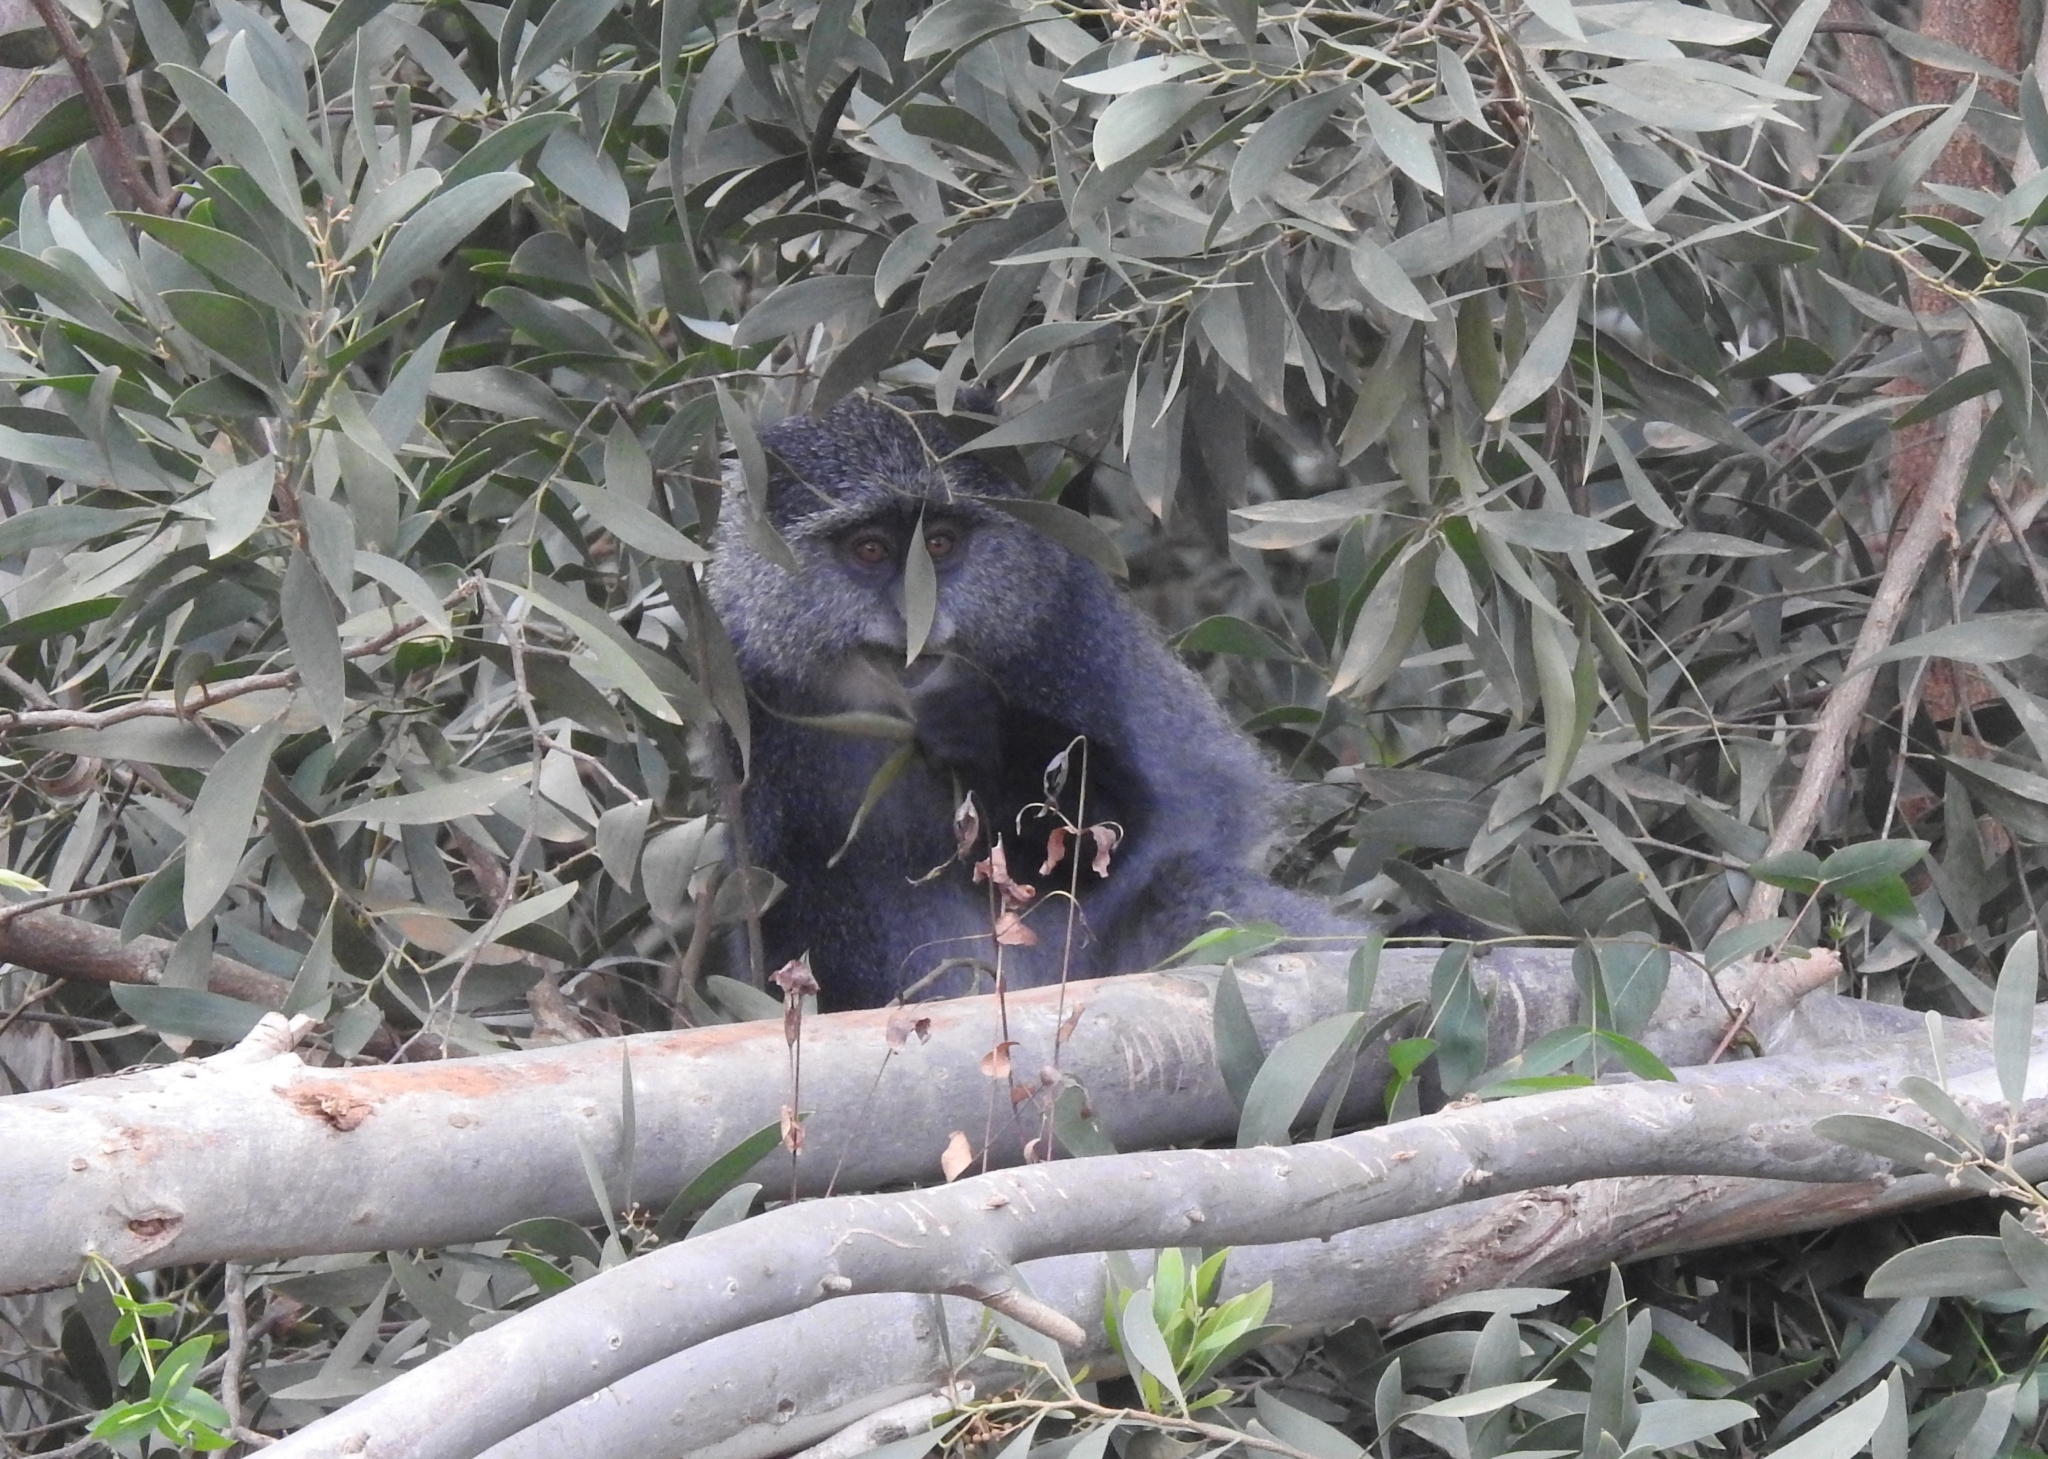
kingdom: Animalia
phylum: Chordata
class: Mammalia
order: Primates
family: Cercopithecidae
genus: Cercopithecus
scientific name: Cercopithecus mitis
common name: Blue monkey
